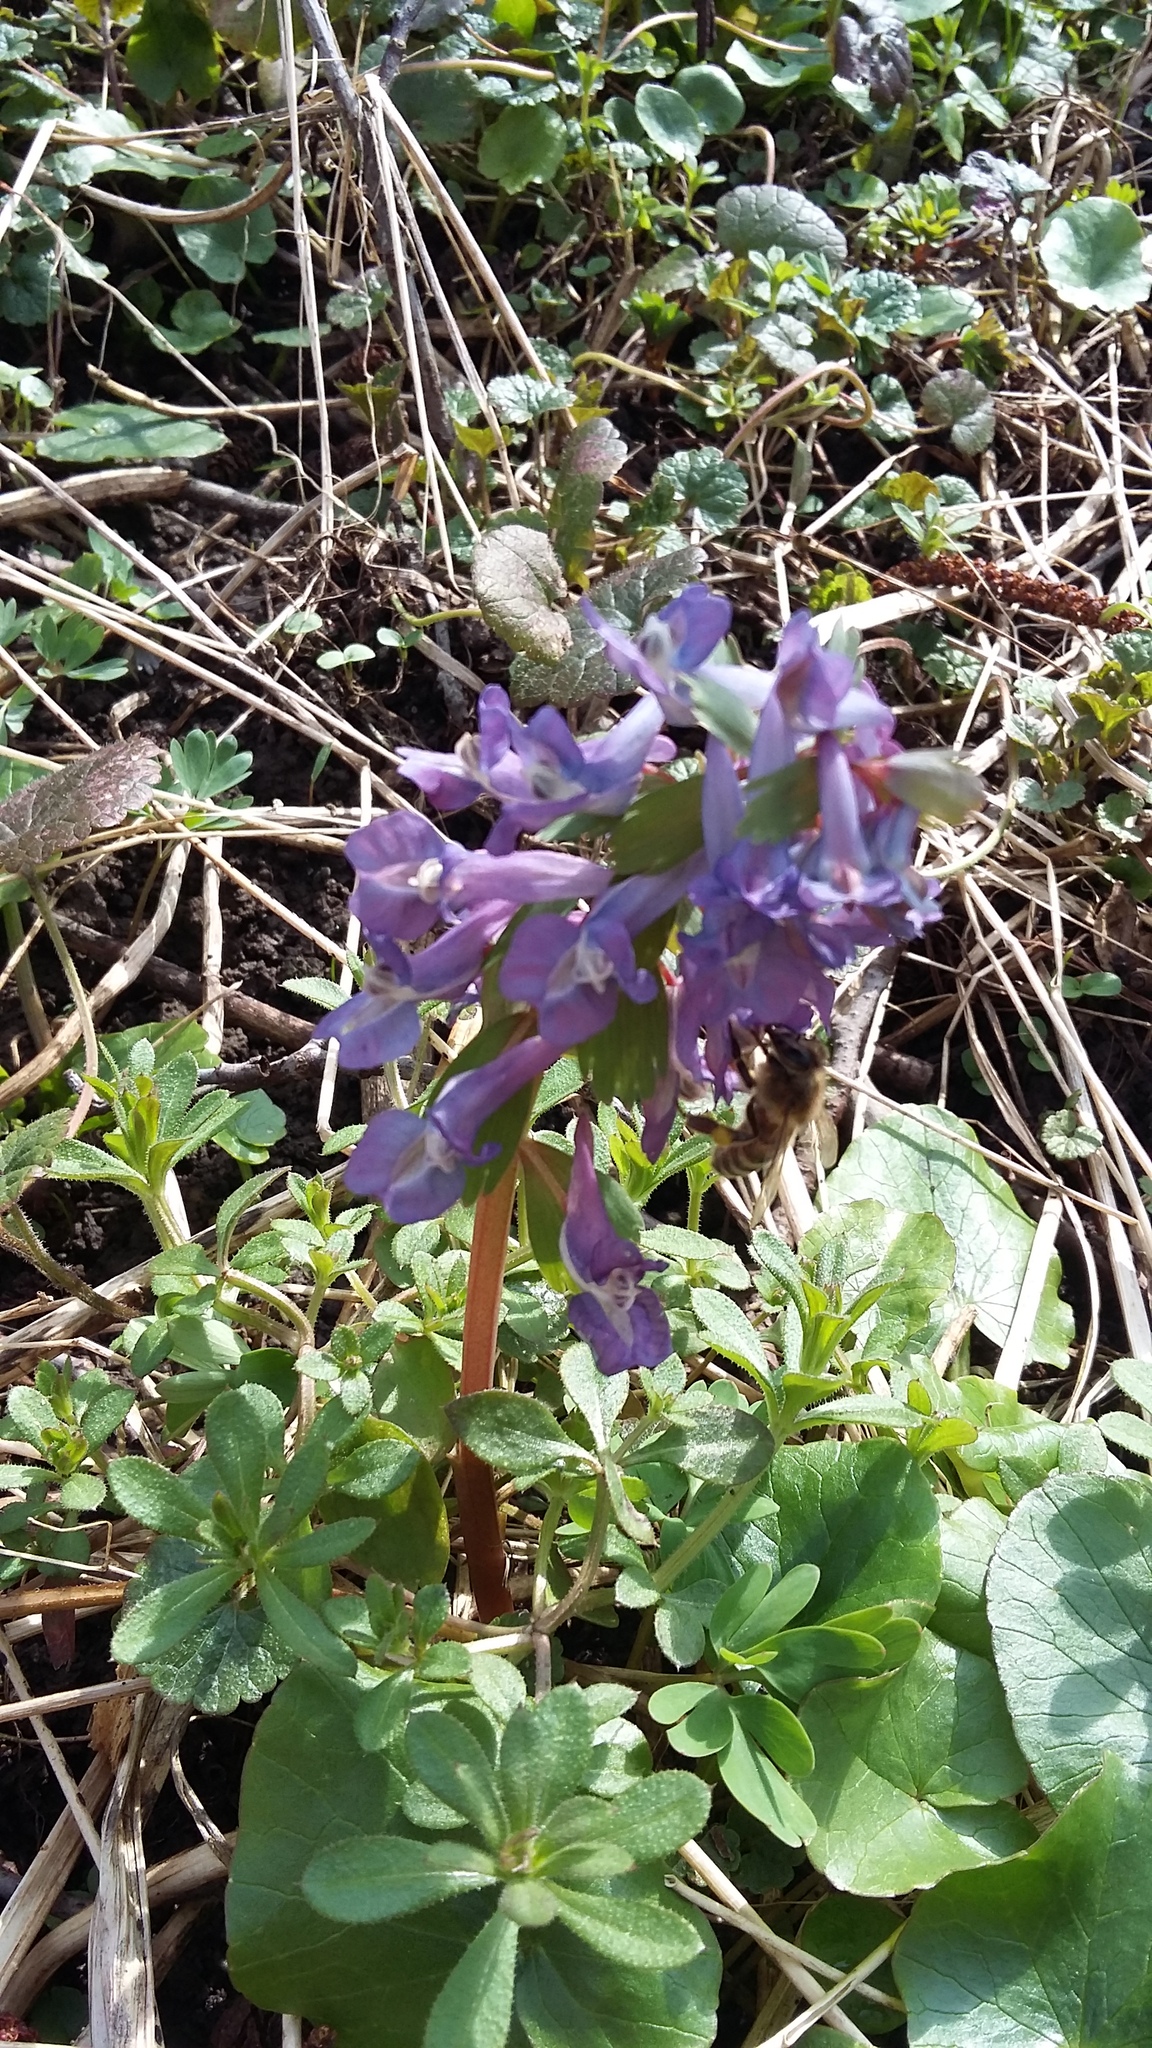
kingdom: Plantae
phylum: Tracheophyta
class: Magnoliopsida
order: Ranunculales
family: Papaveraceae
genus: Corydalis
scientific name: Corydalis solida
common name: Bird-in-a-bush
